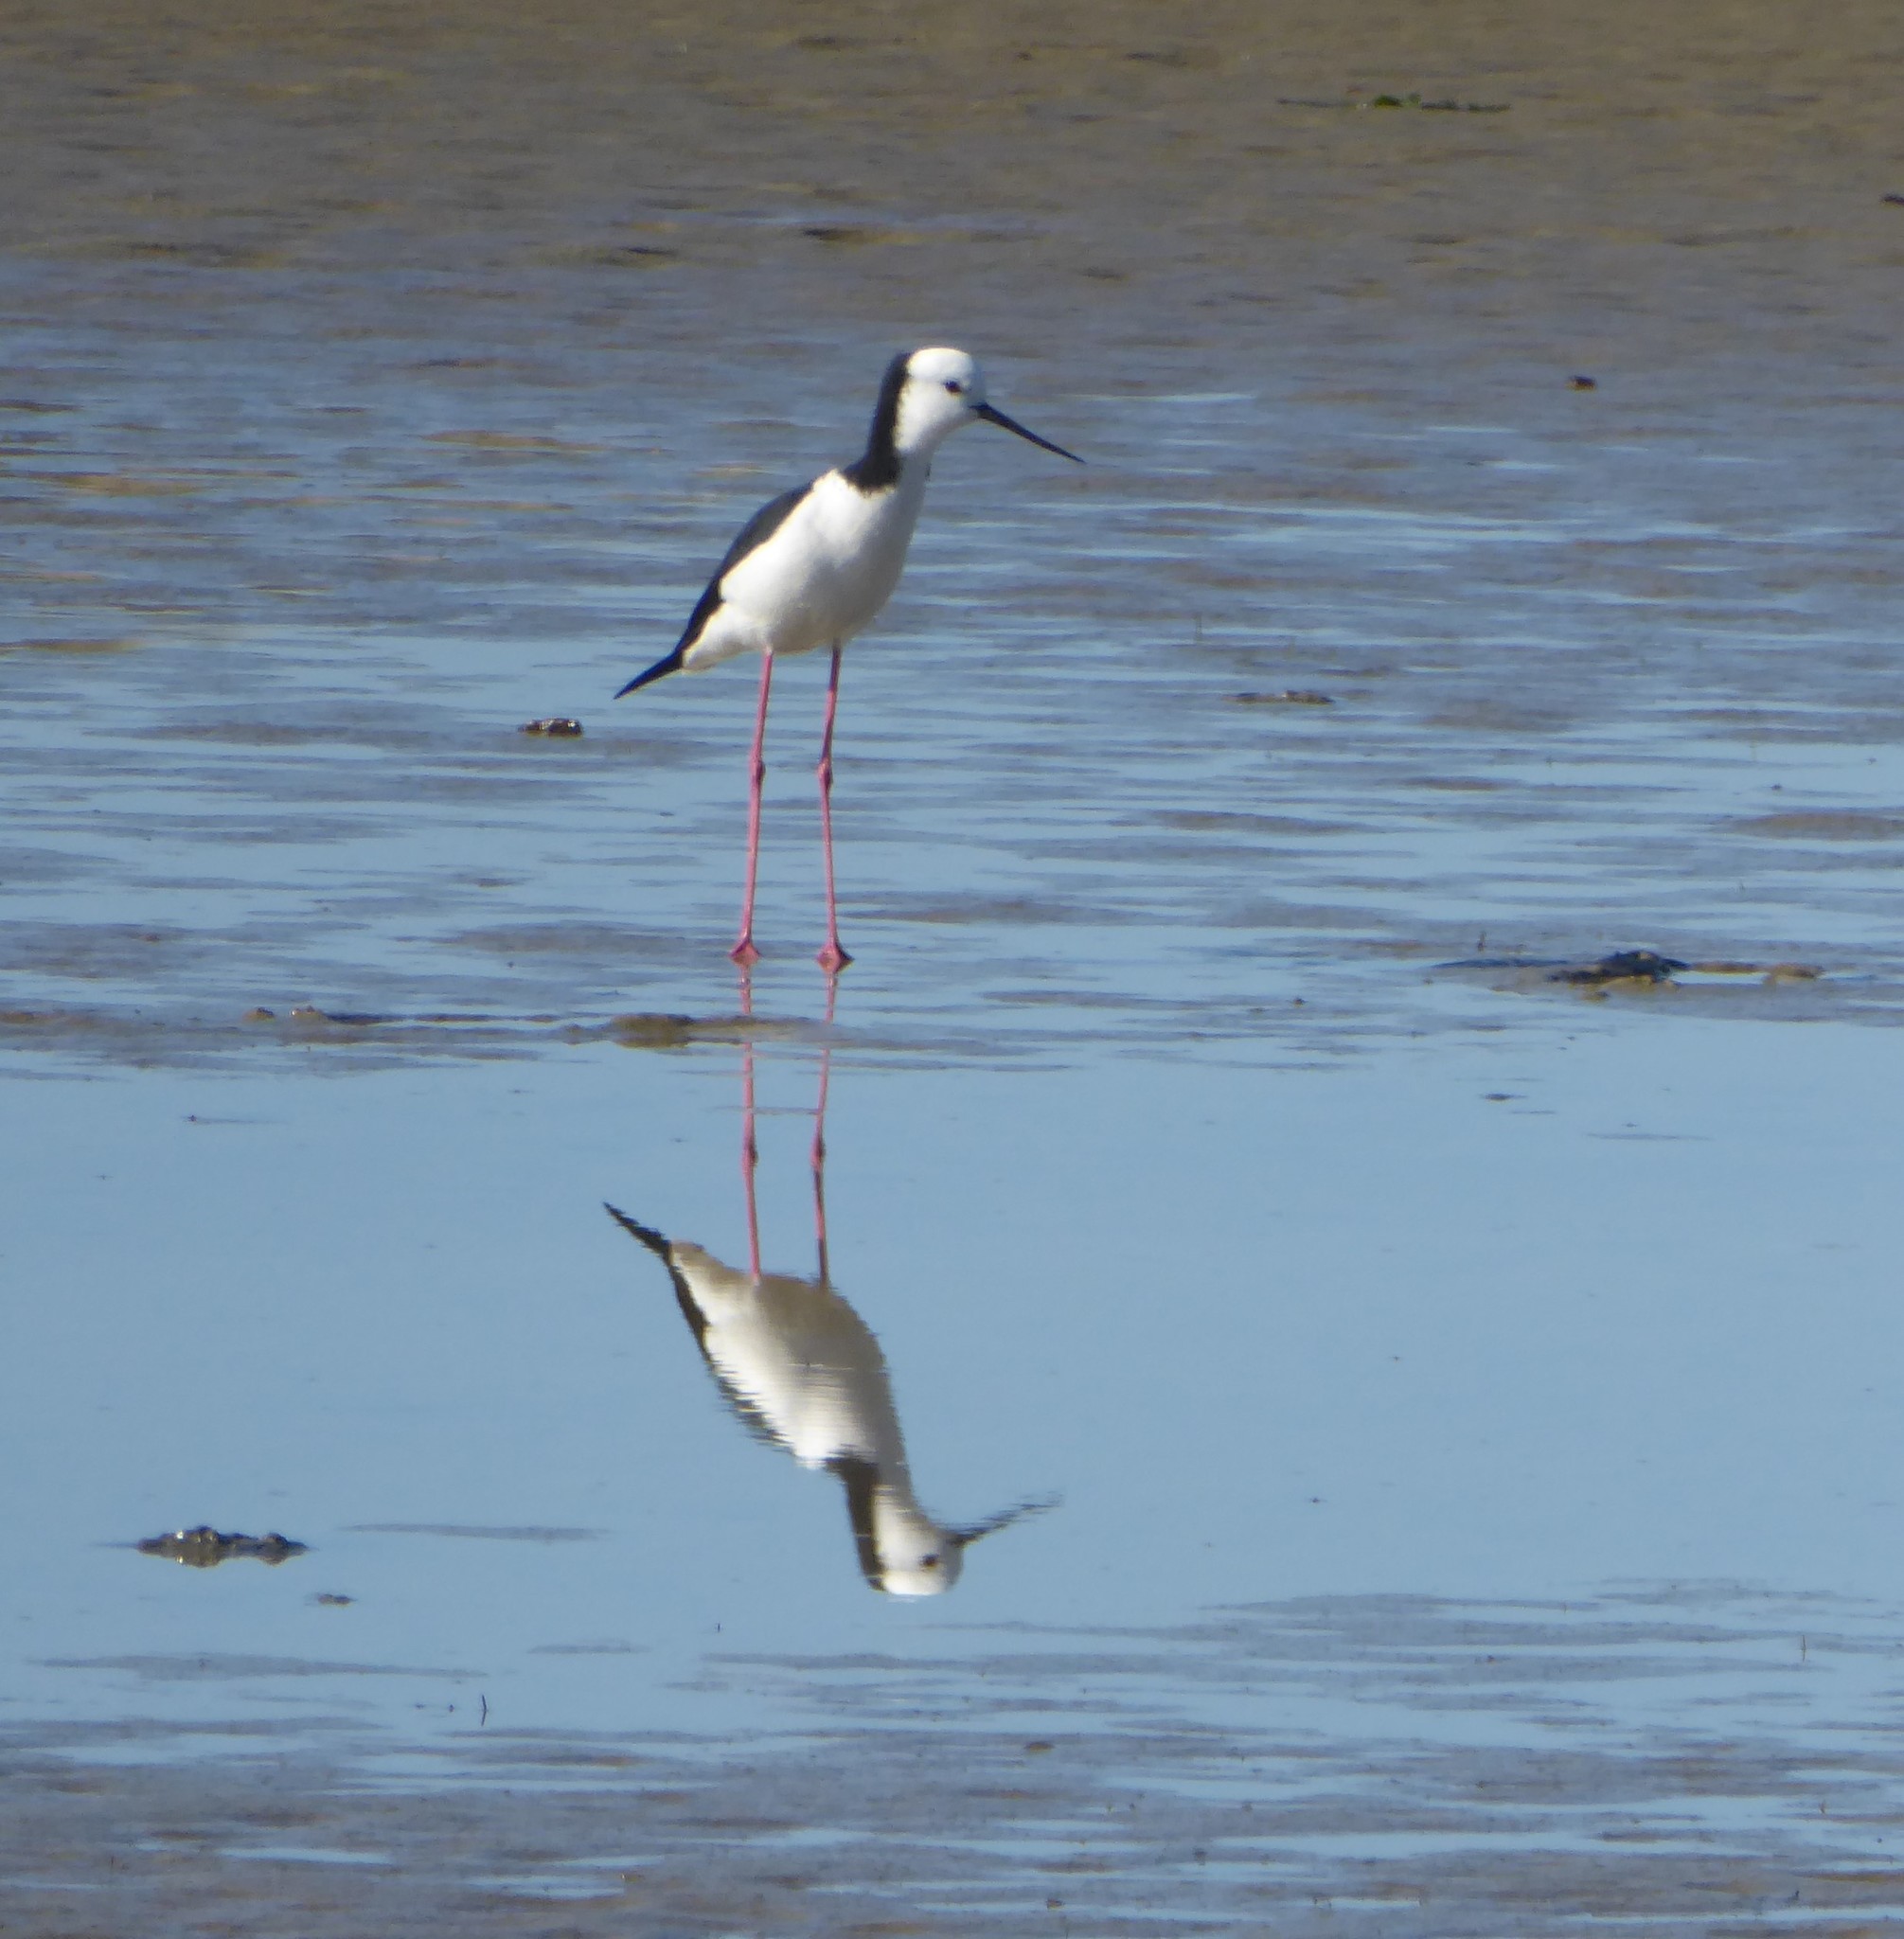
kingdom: Animalia
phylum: Chordata
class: Aves
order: Charadriiformes
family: Recurvirostridae
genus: Himantopus
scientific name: Himantopus leucocephalus
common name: White-headed stilt
